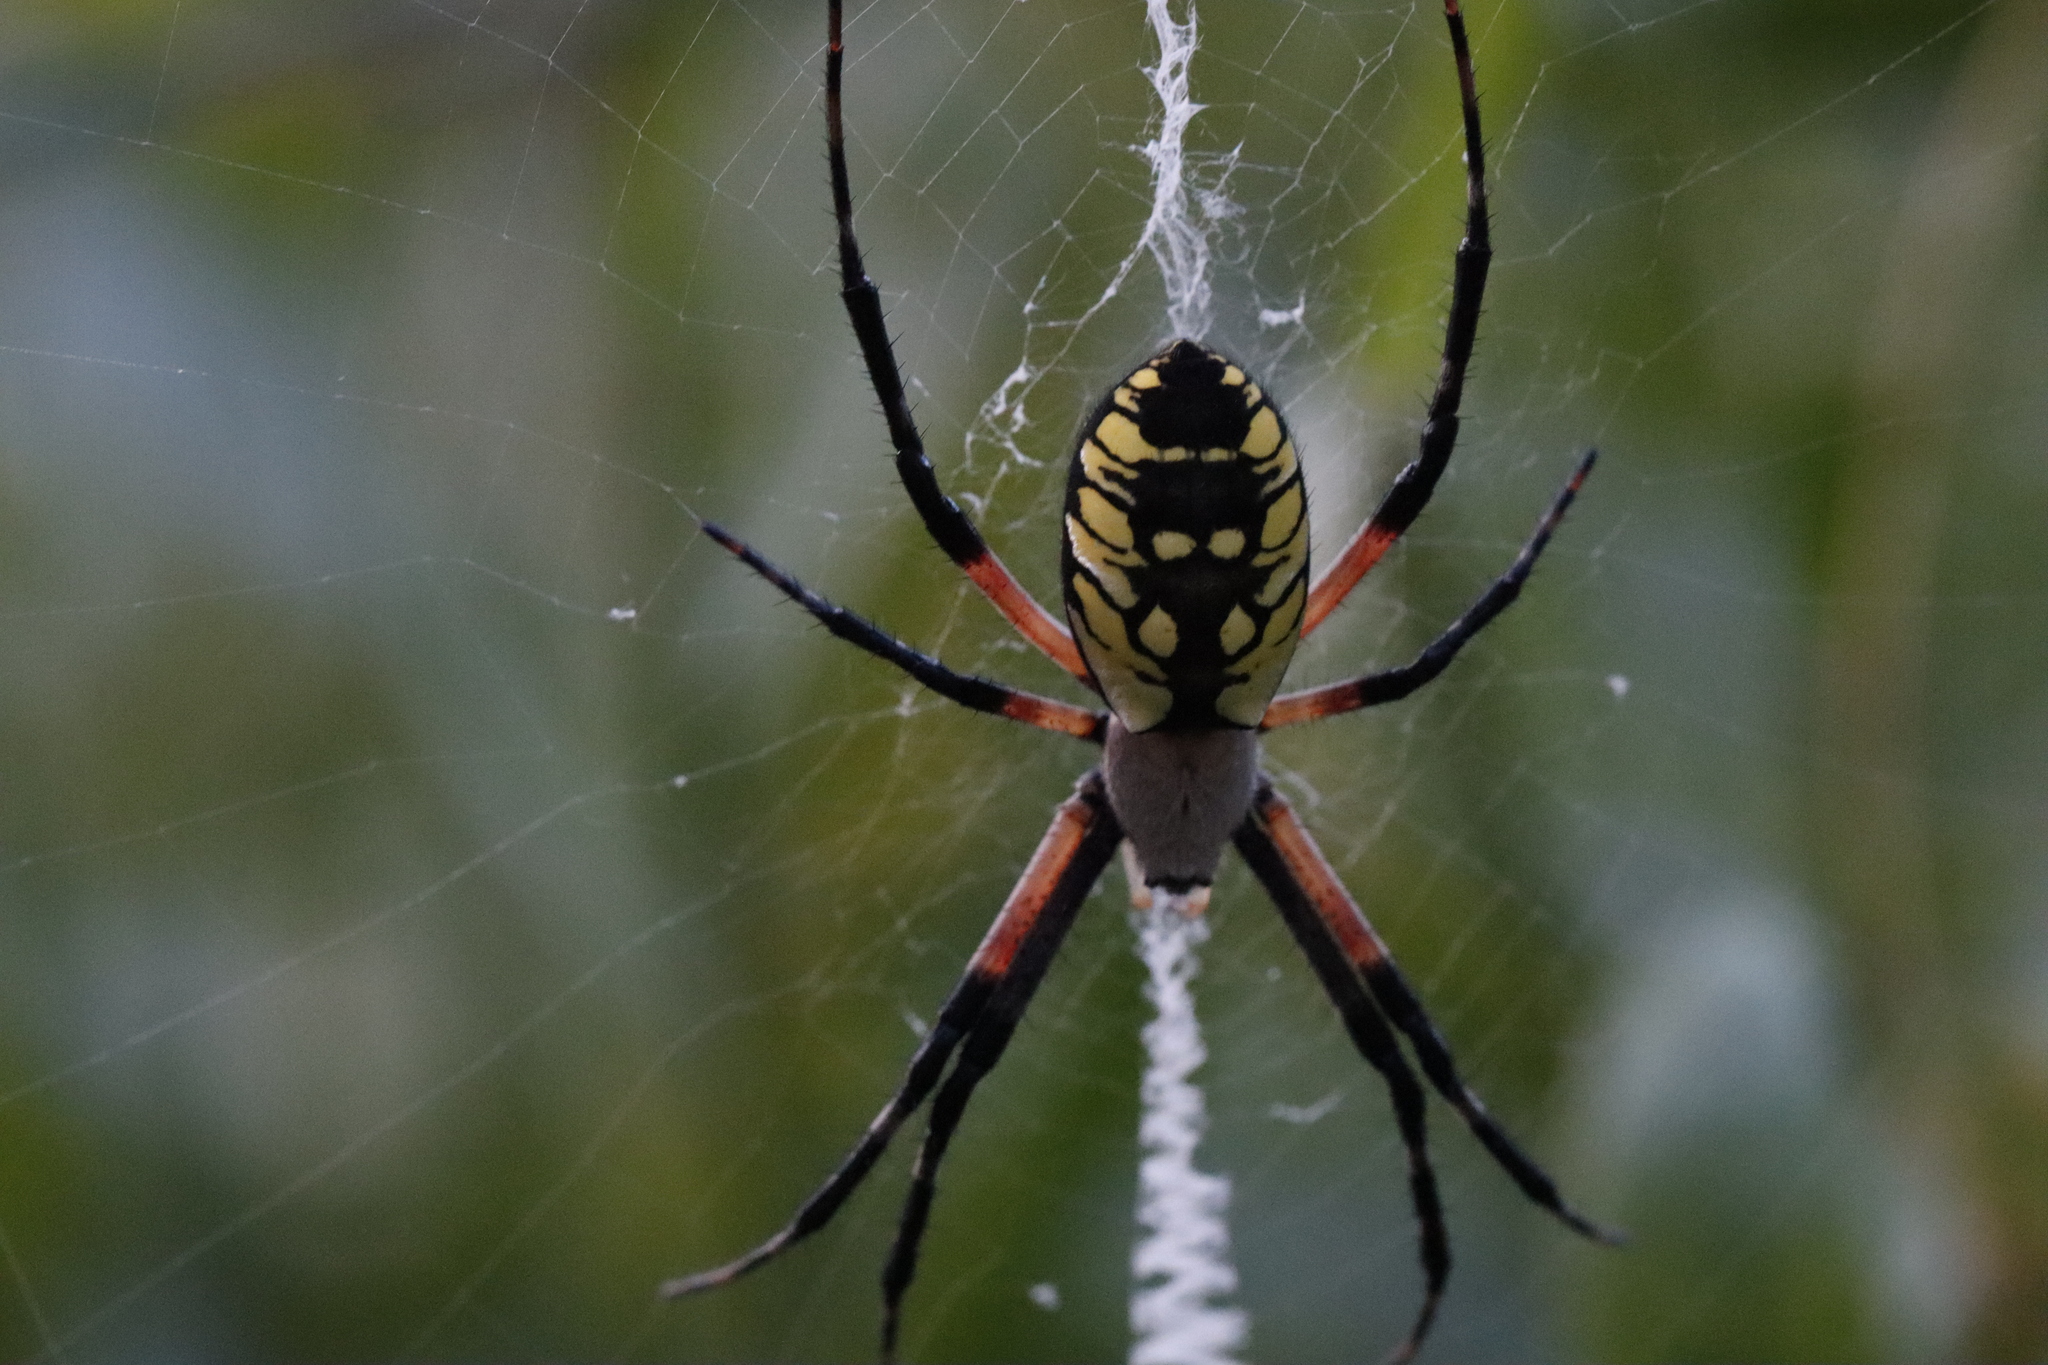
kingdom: Animalia
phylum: Arthropoda
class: Arachnida
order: Araneae
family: Araneidae
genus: Argiope
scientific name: Argiope aurantia
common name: Orb weavers
